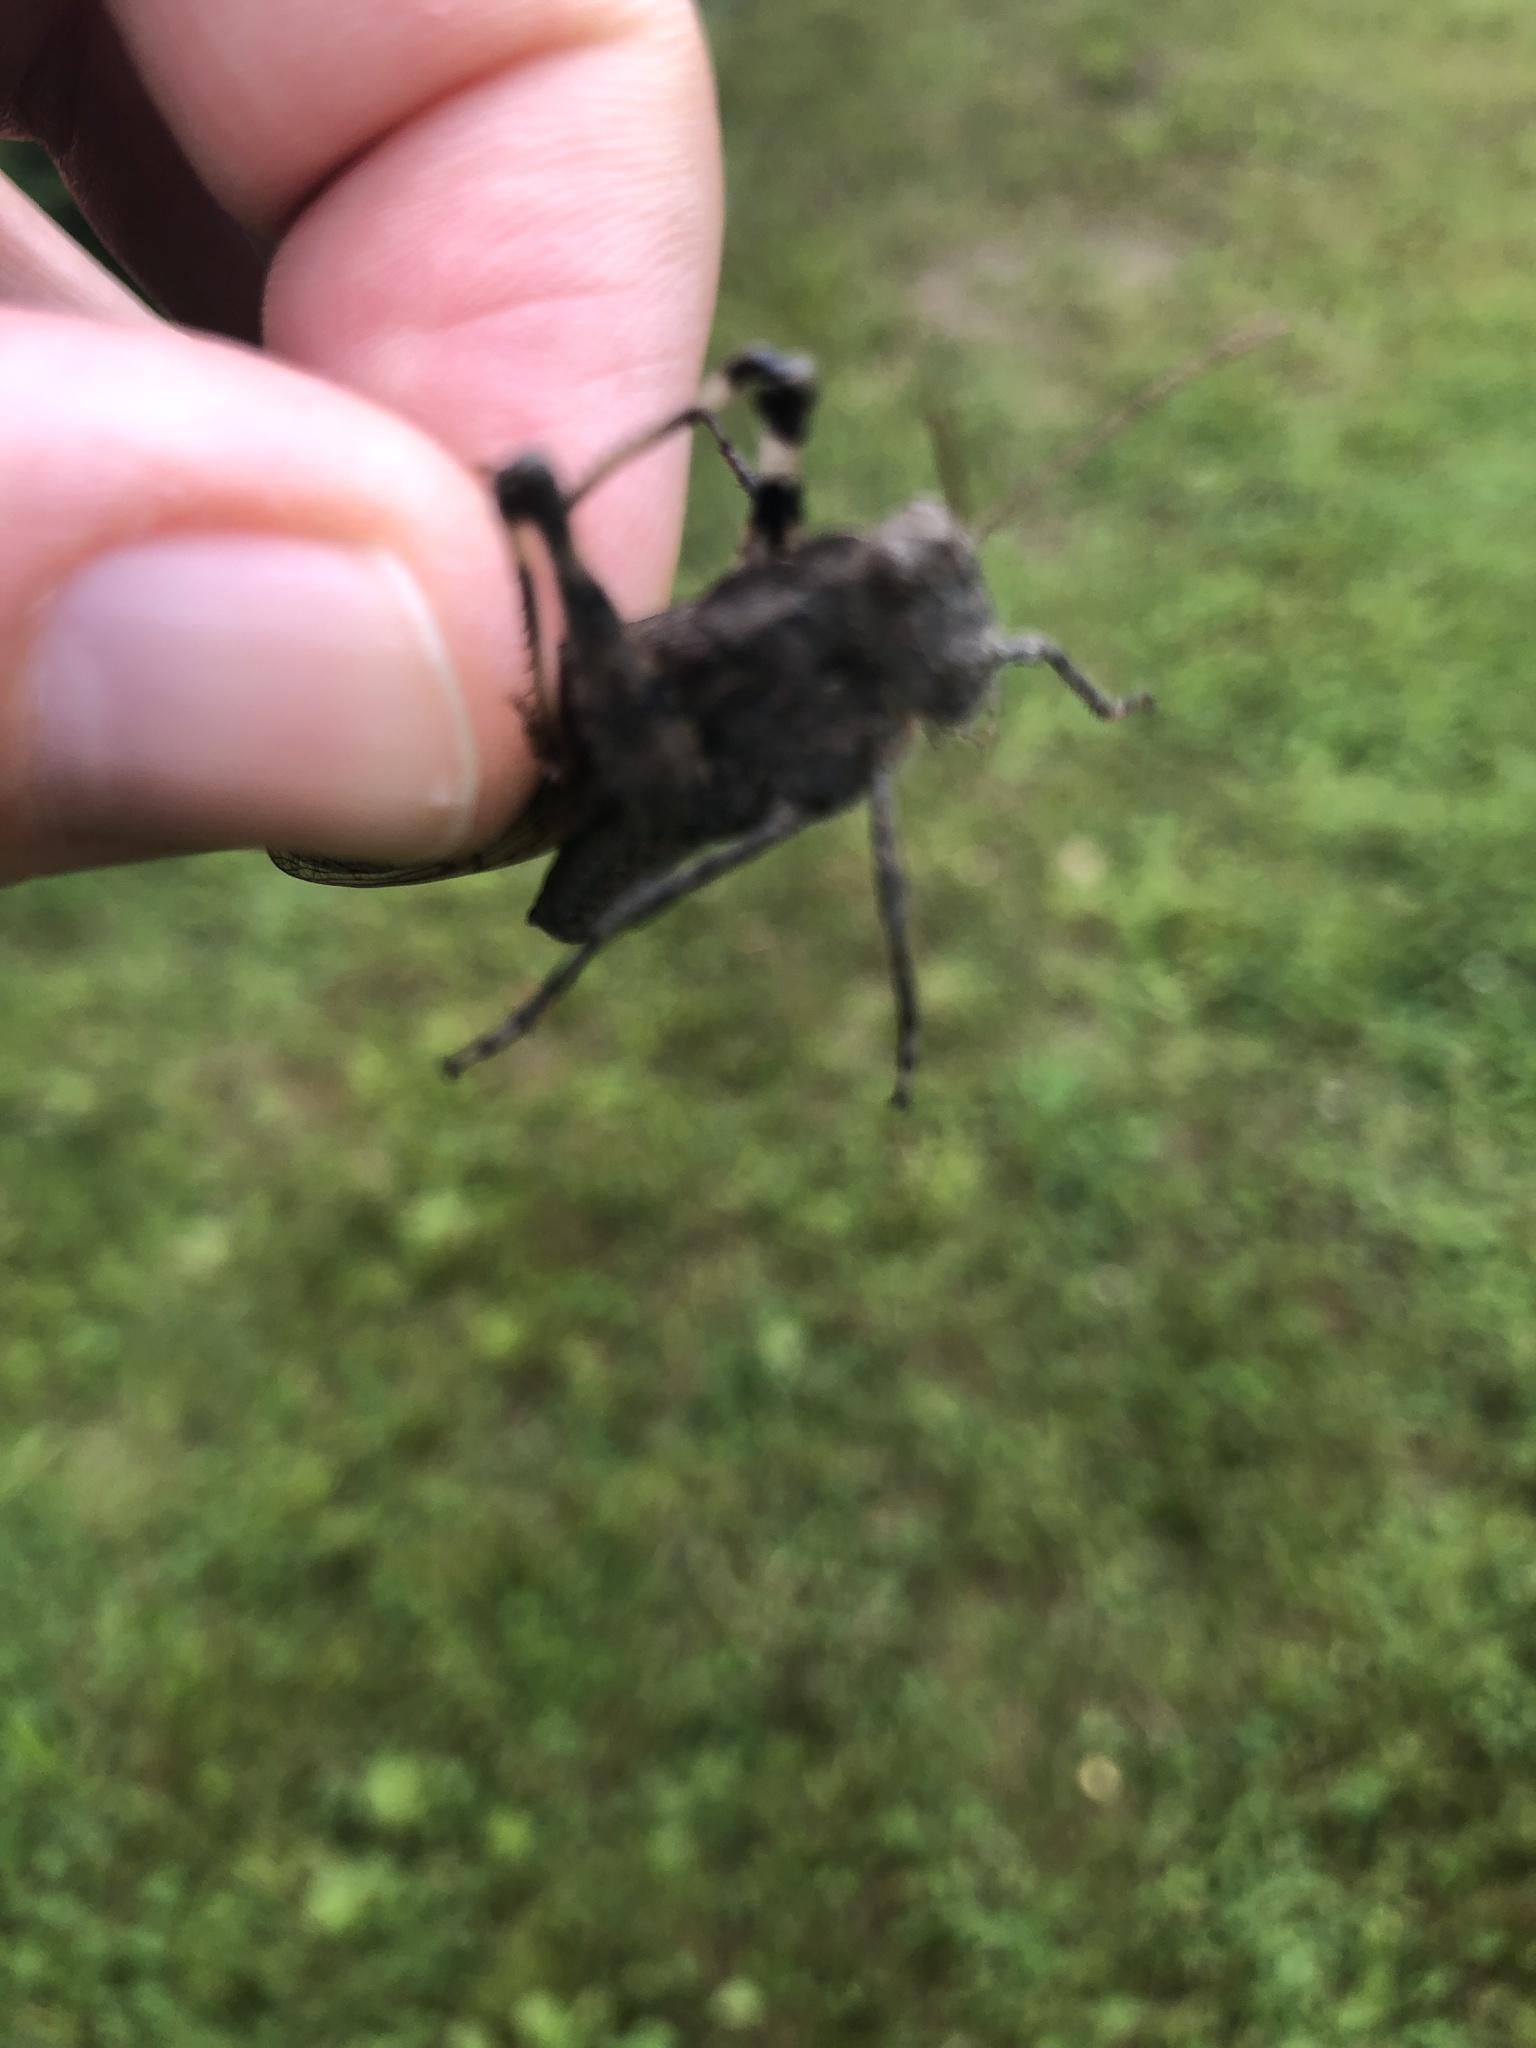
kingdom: Animalia
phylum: Arthropoda
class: Insecta
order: Orthoptera
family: Acrididae
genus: Dissosteira
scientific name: Dissosteira carolina
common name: Carolina grasshopper
